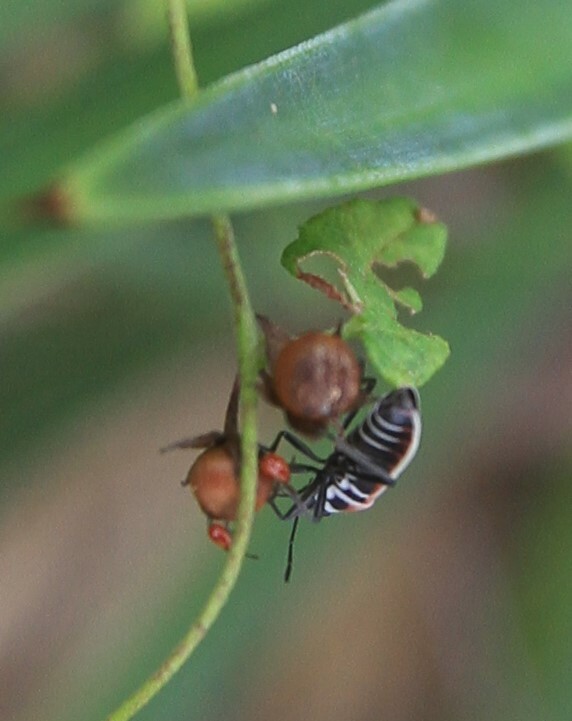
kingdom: Animalia
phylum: Arthropoda
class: Insecta
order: Hemiptera
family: Lygaeidae
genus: Ochrostomus
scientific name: Ochrostomus pulchellus
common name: Lygaeid bug
